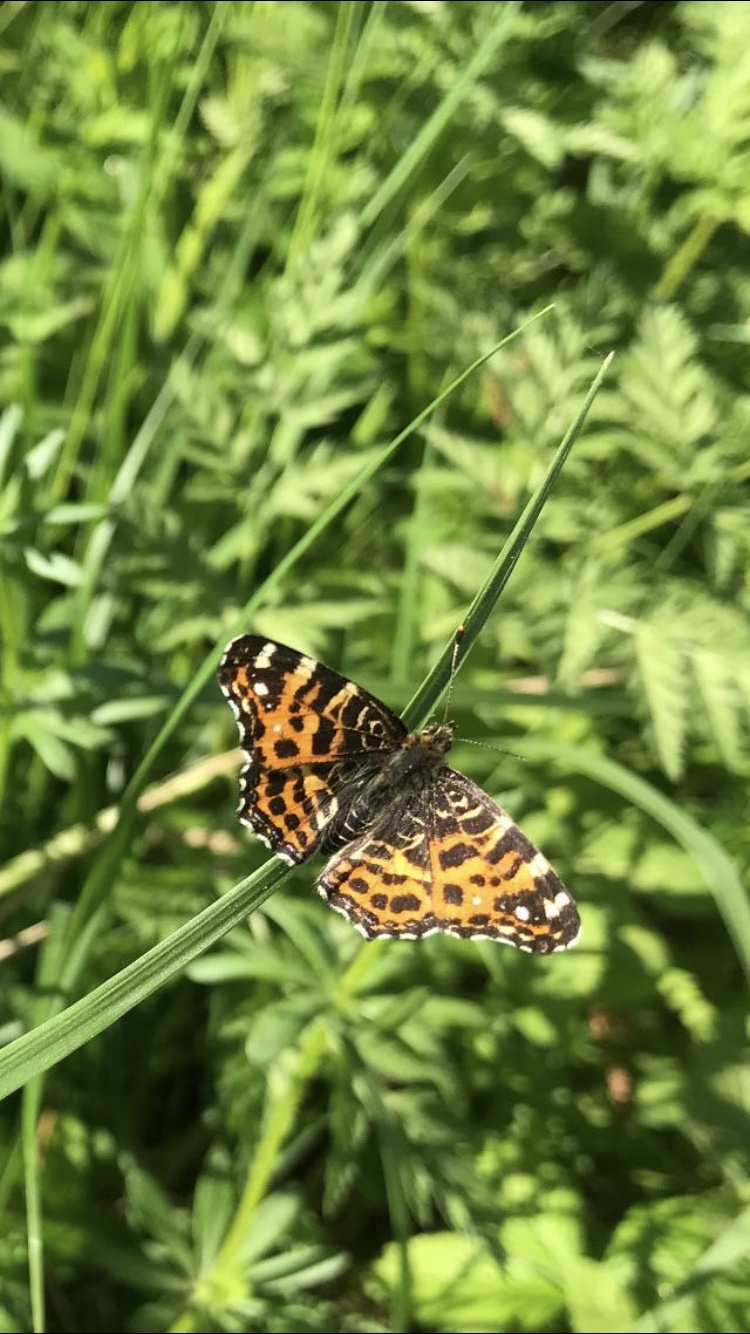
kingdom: Animalia
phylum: Arthropoda
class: Insecta
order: Lepidoptera
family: Nymphalidae
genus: Araschnia
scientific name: Araschnia levana
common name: Map butterfly
